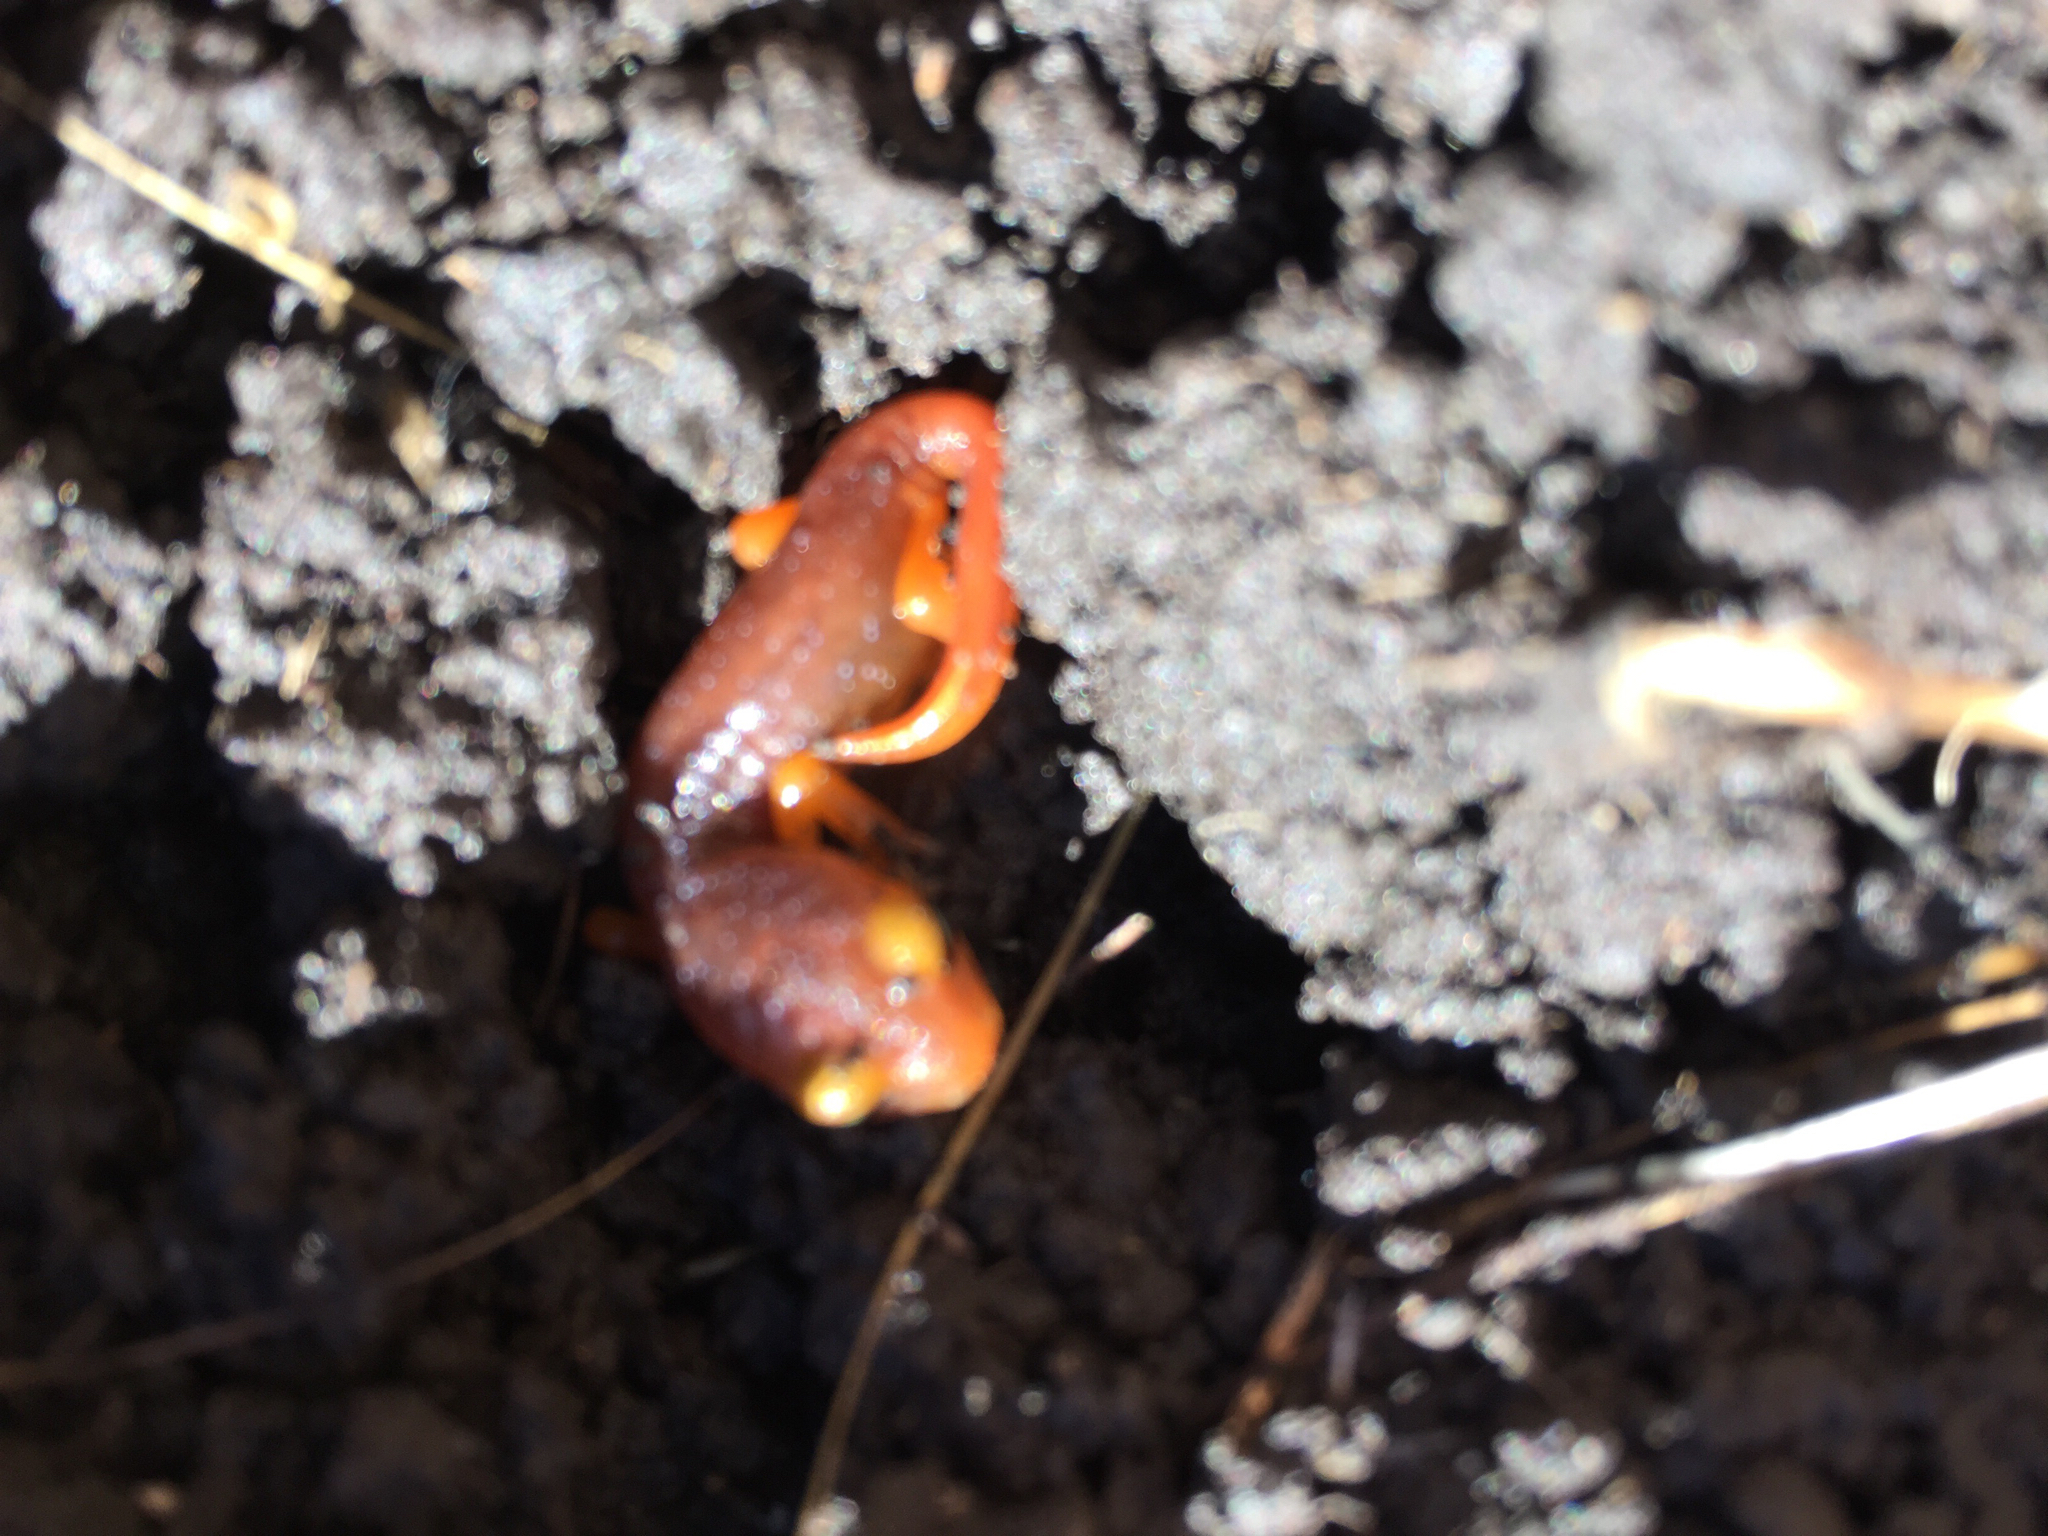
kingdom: Animalia
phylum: Chordata
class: Amphibia
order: Caudata
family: Plethodontidae
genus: Ensatina
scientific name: Ensatina eschscholtzii
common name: Ensatina
